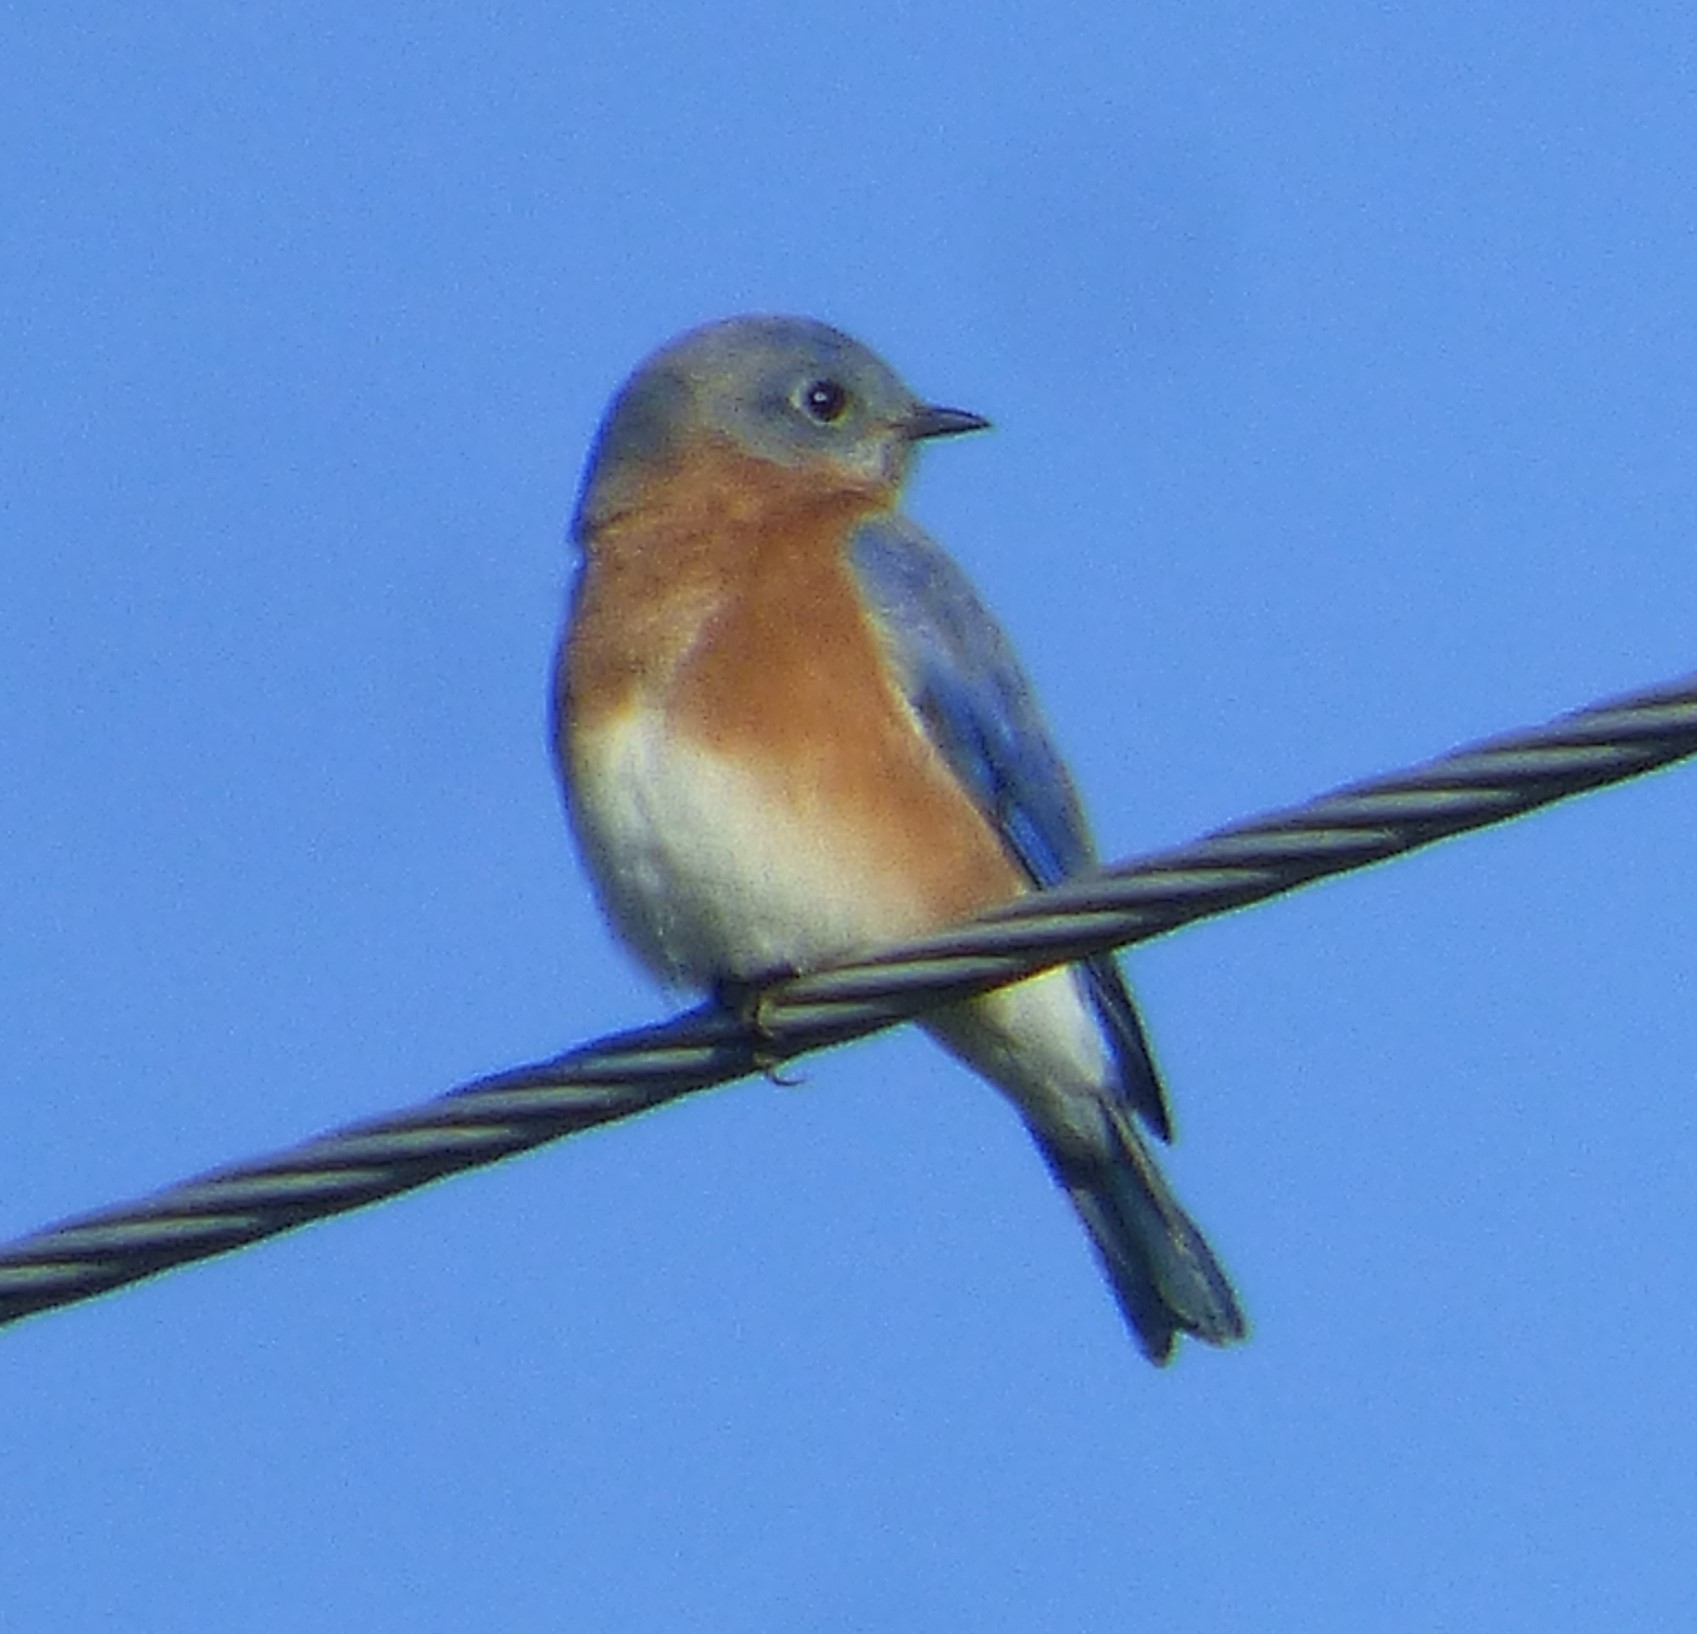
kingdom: Animalia
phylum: Chordata
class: Aves
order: Passeriformes
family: Turdidae
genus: Sialia
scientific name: Sialia sialis
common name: Eastern bluebird
